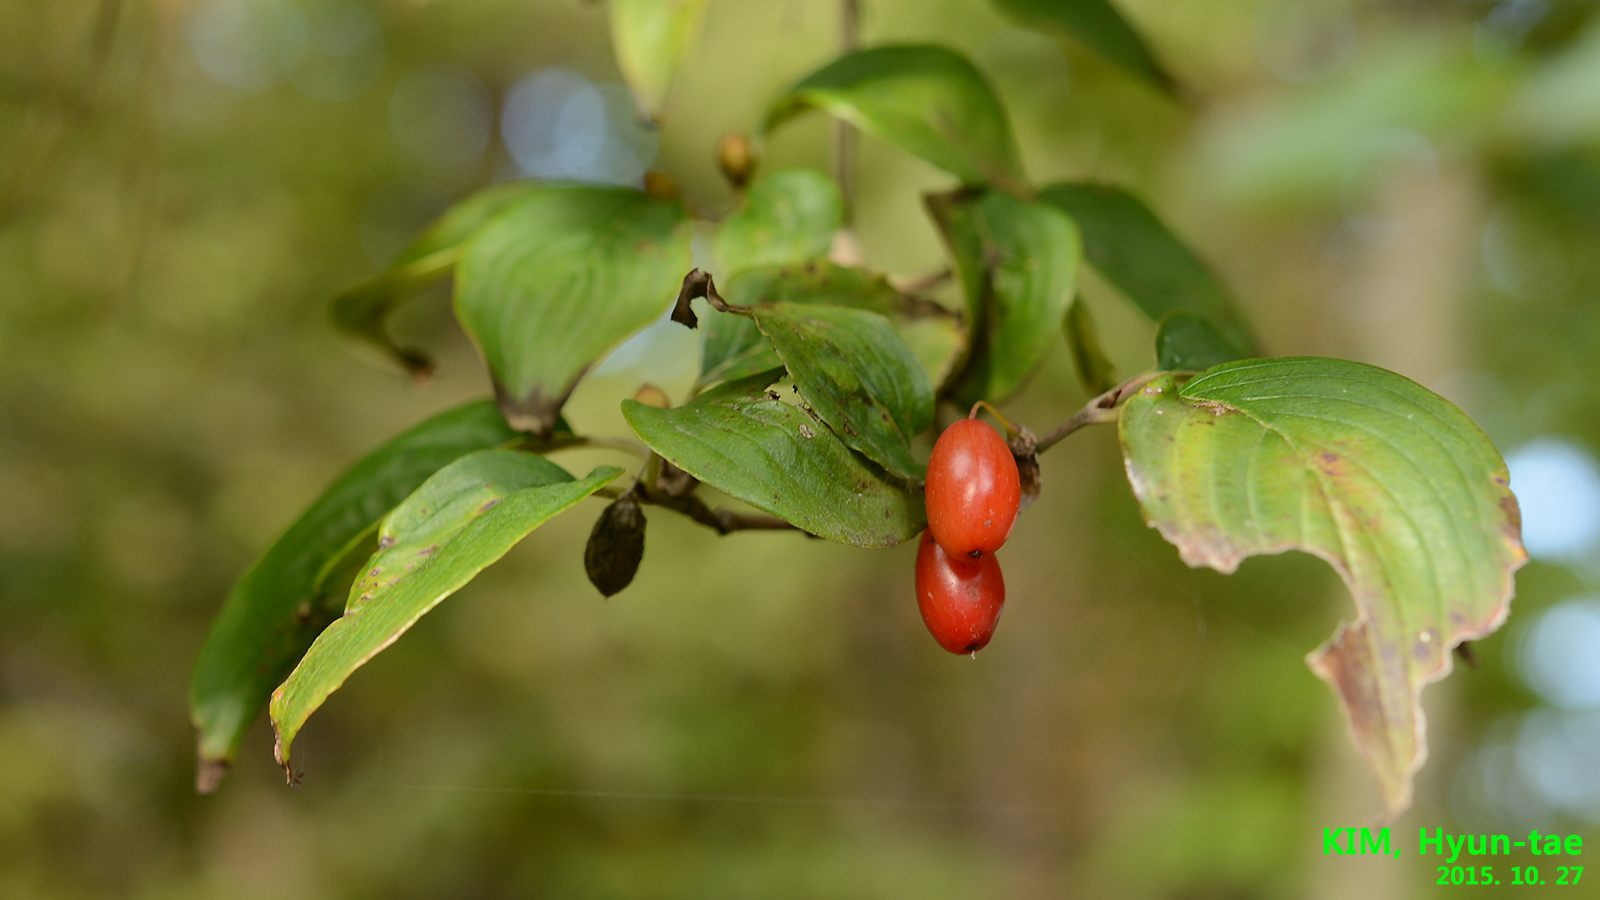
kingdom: Plantae
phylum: Tracheophyta
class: Magnoliopsida
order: Cornales
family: Cornaceae
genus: Cornus
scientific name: Cornus officinalis
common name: Asiatic dogwood
